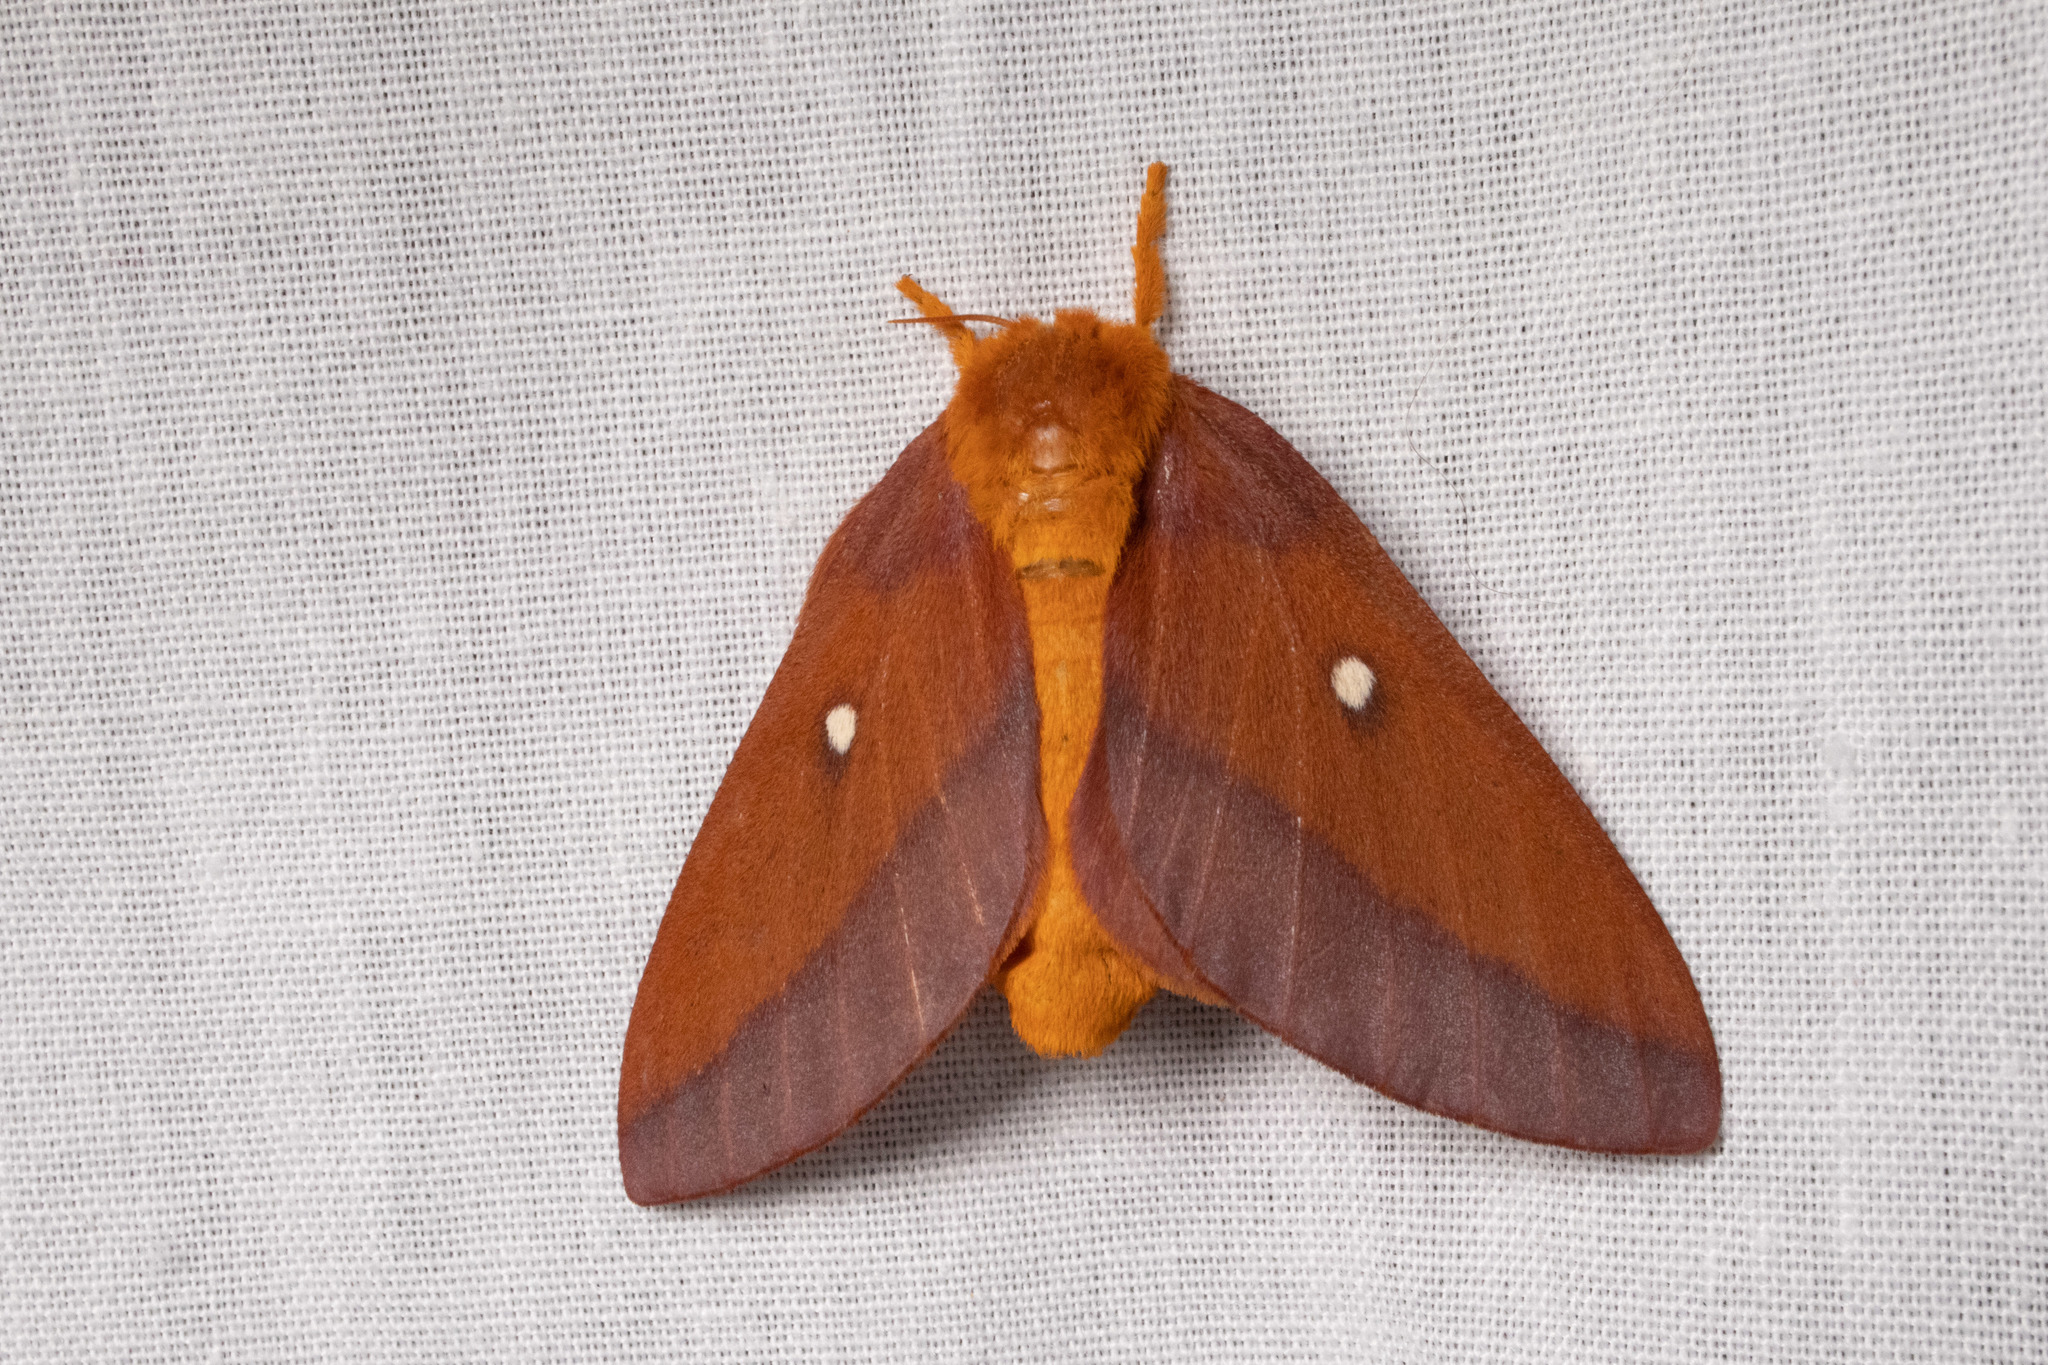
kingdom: Animalia
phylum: Arthropoda
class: Insecta
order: Lepidoptera
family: Saturniidae
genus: Anisota
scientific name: Anisota virginiensis
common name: Pink striped oakworm moth
